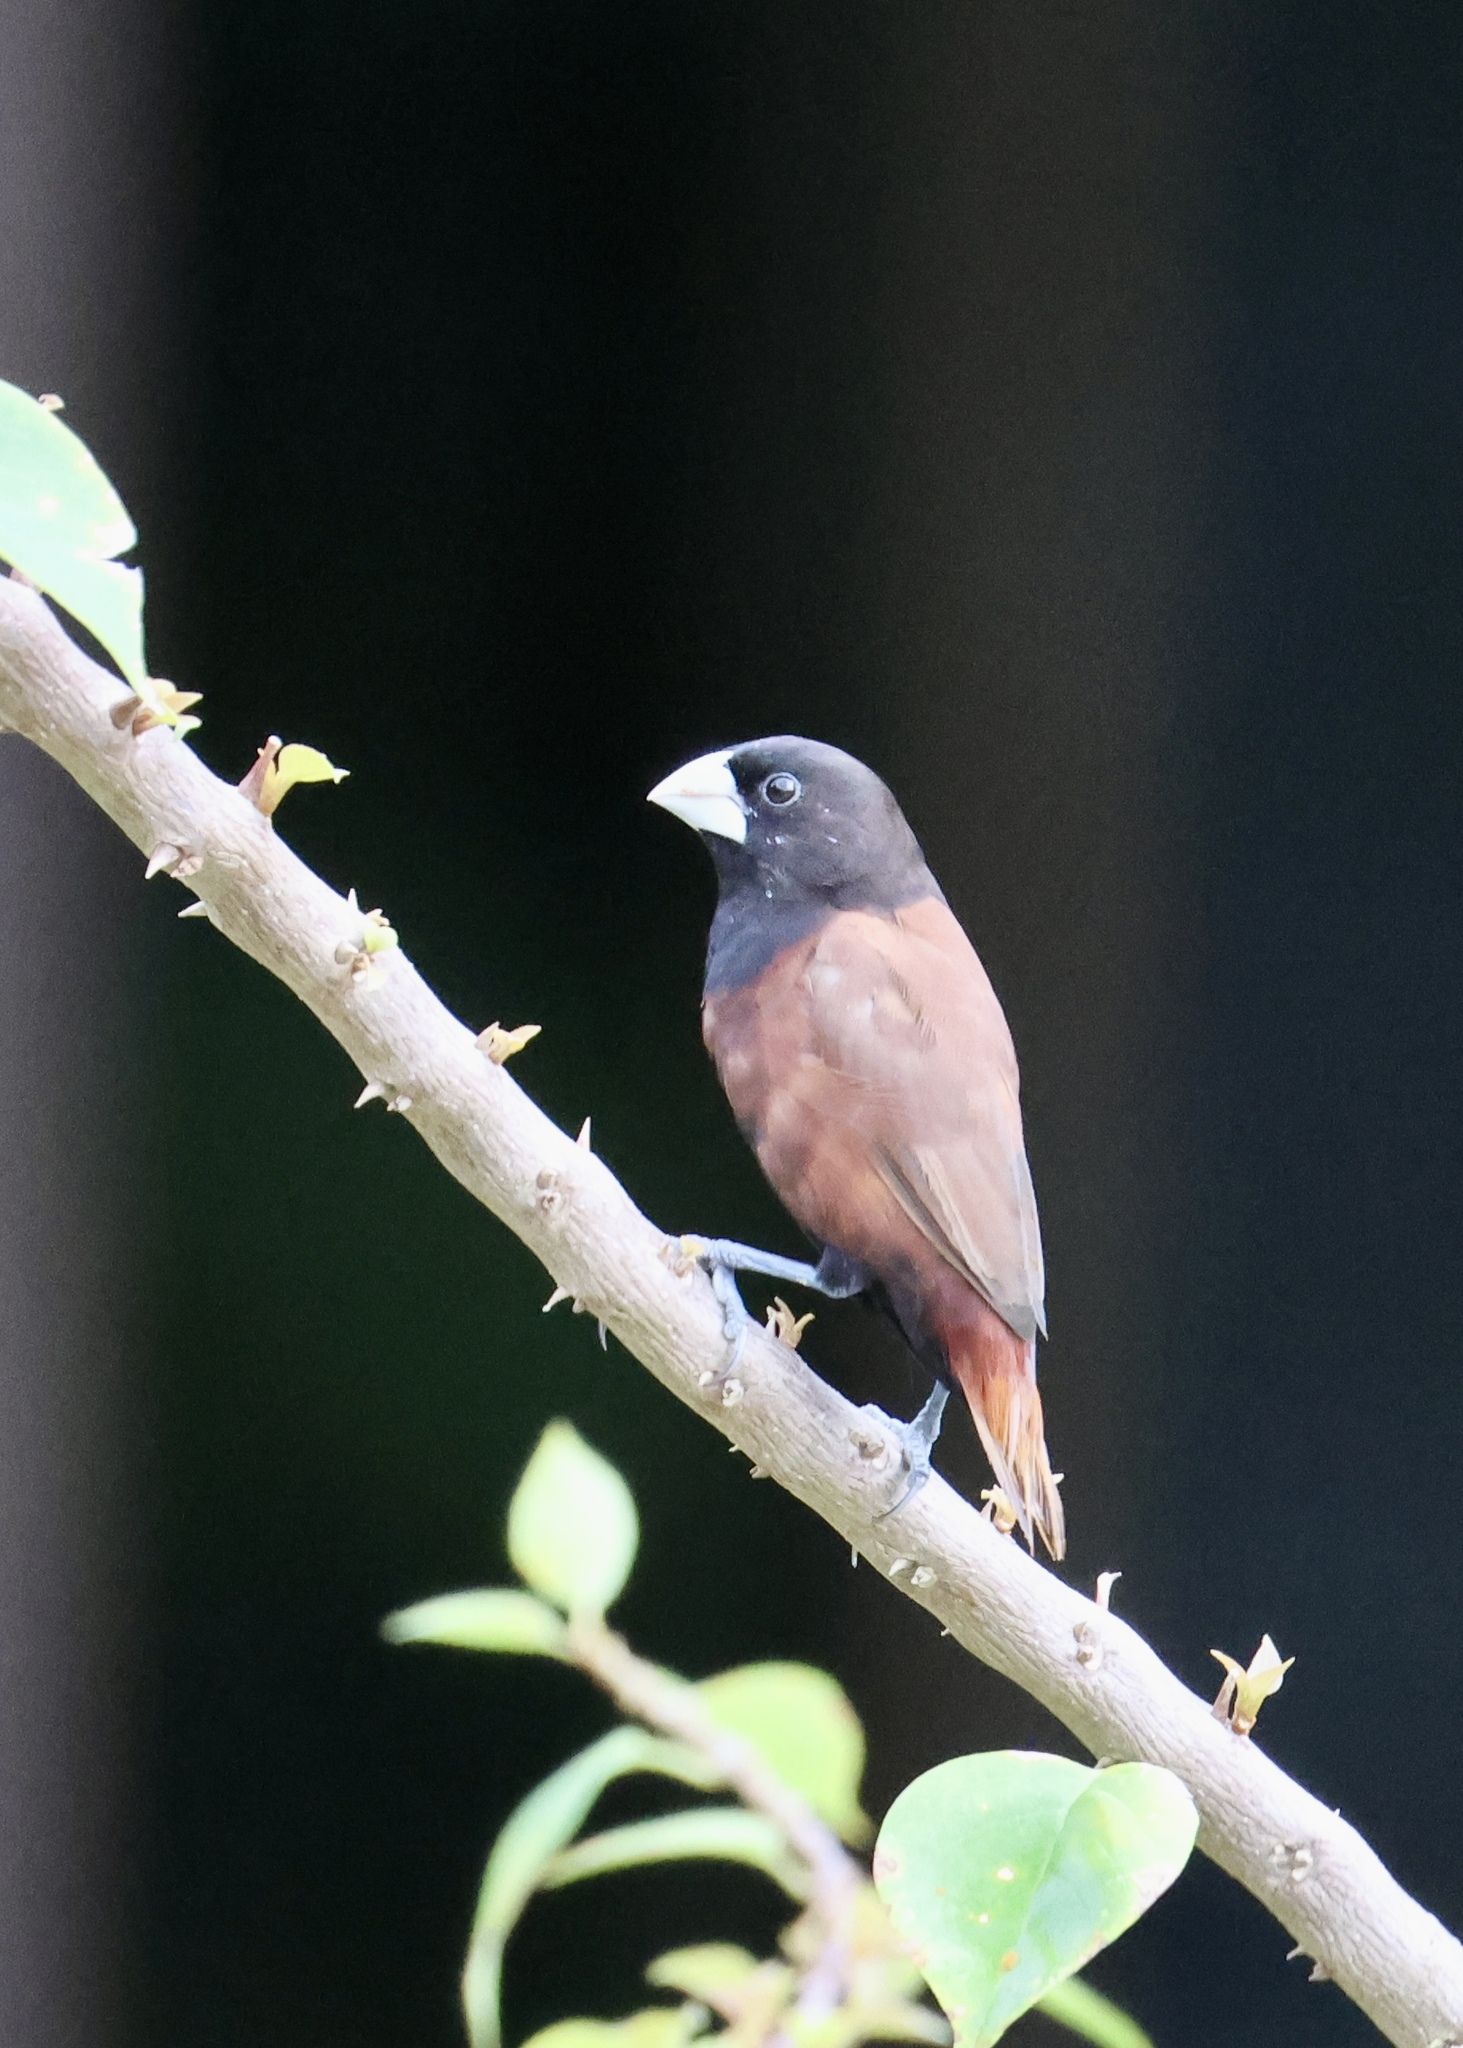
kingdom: Animalia
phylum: Chordata
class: Aves
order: Passeriformes
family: Estrildidae
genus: Lonchura
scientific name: Lonchura atricapilla
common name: Chestnut munia
